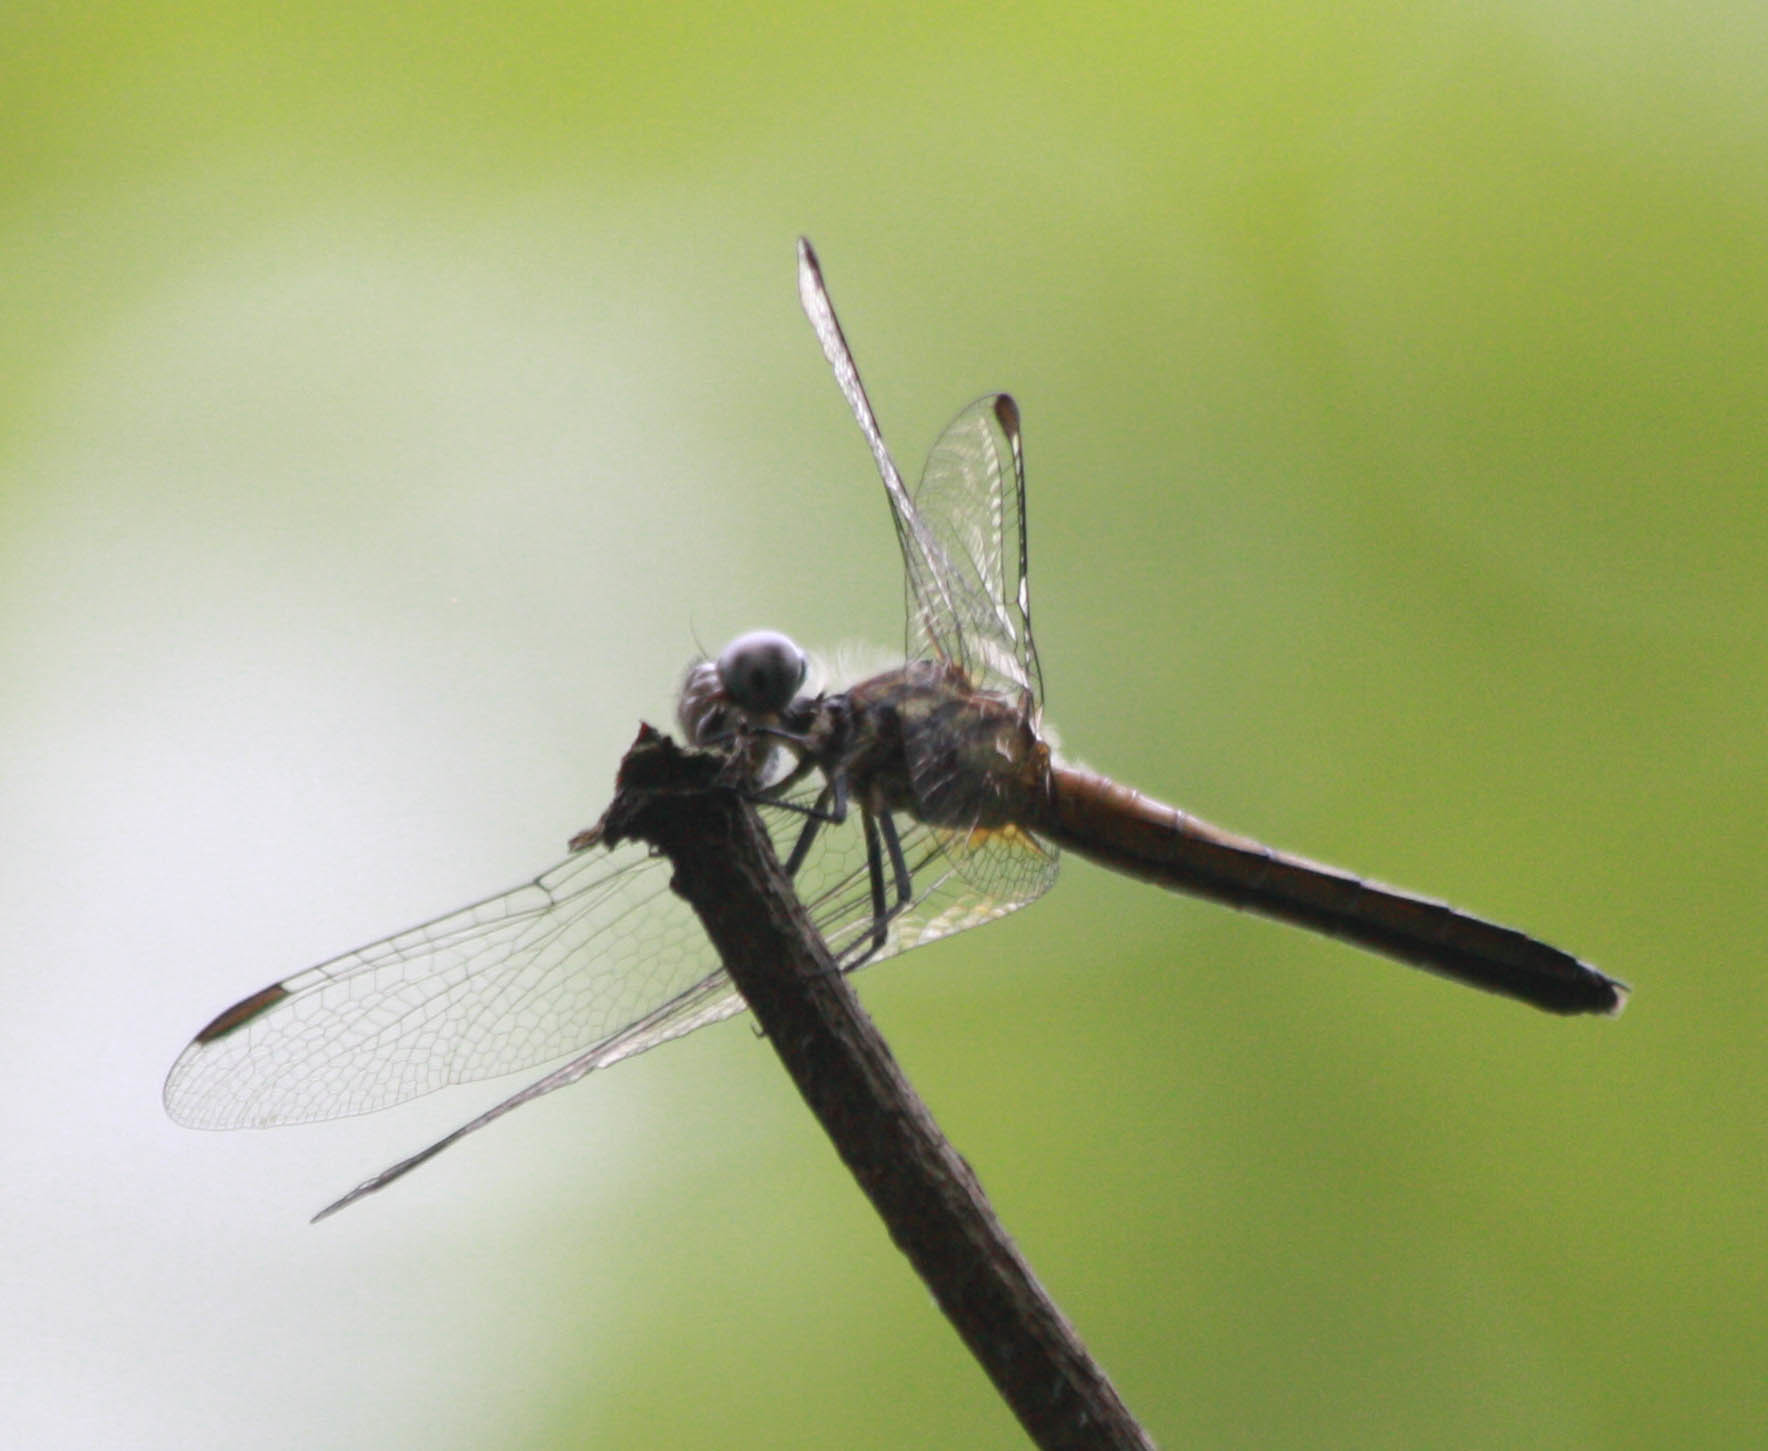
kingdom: Animalia
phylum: Arthropoda
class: Insecta
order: Odonata
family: Libellulidae
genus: Pachydiplax
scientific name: Pachydiplax longipennis
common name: Blue dasher
